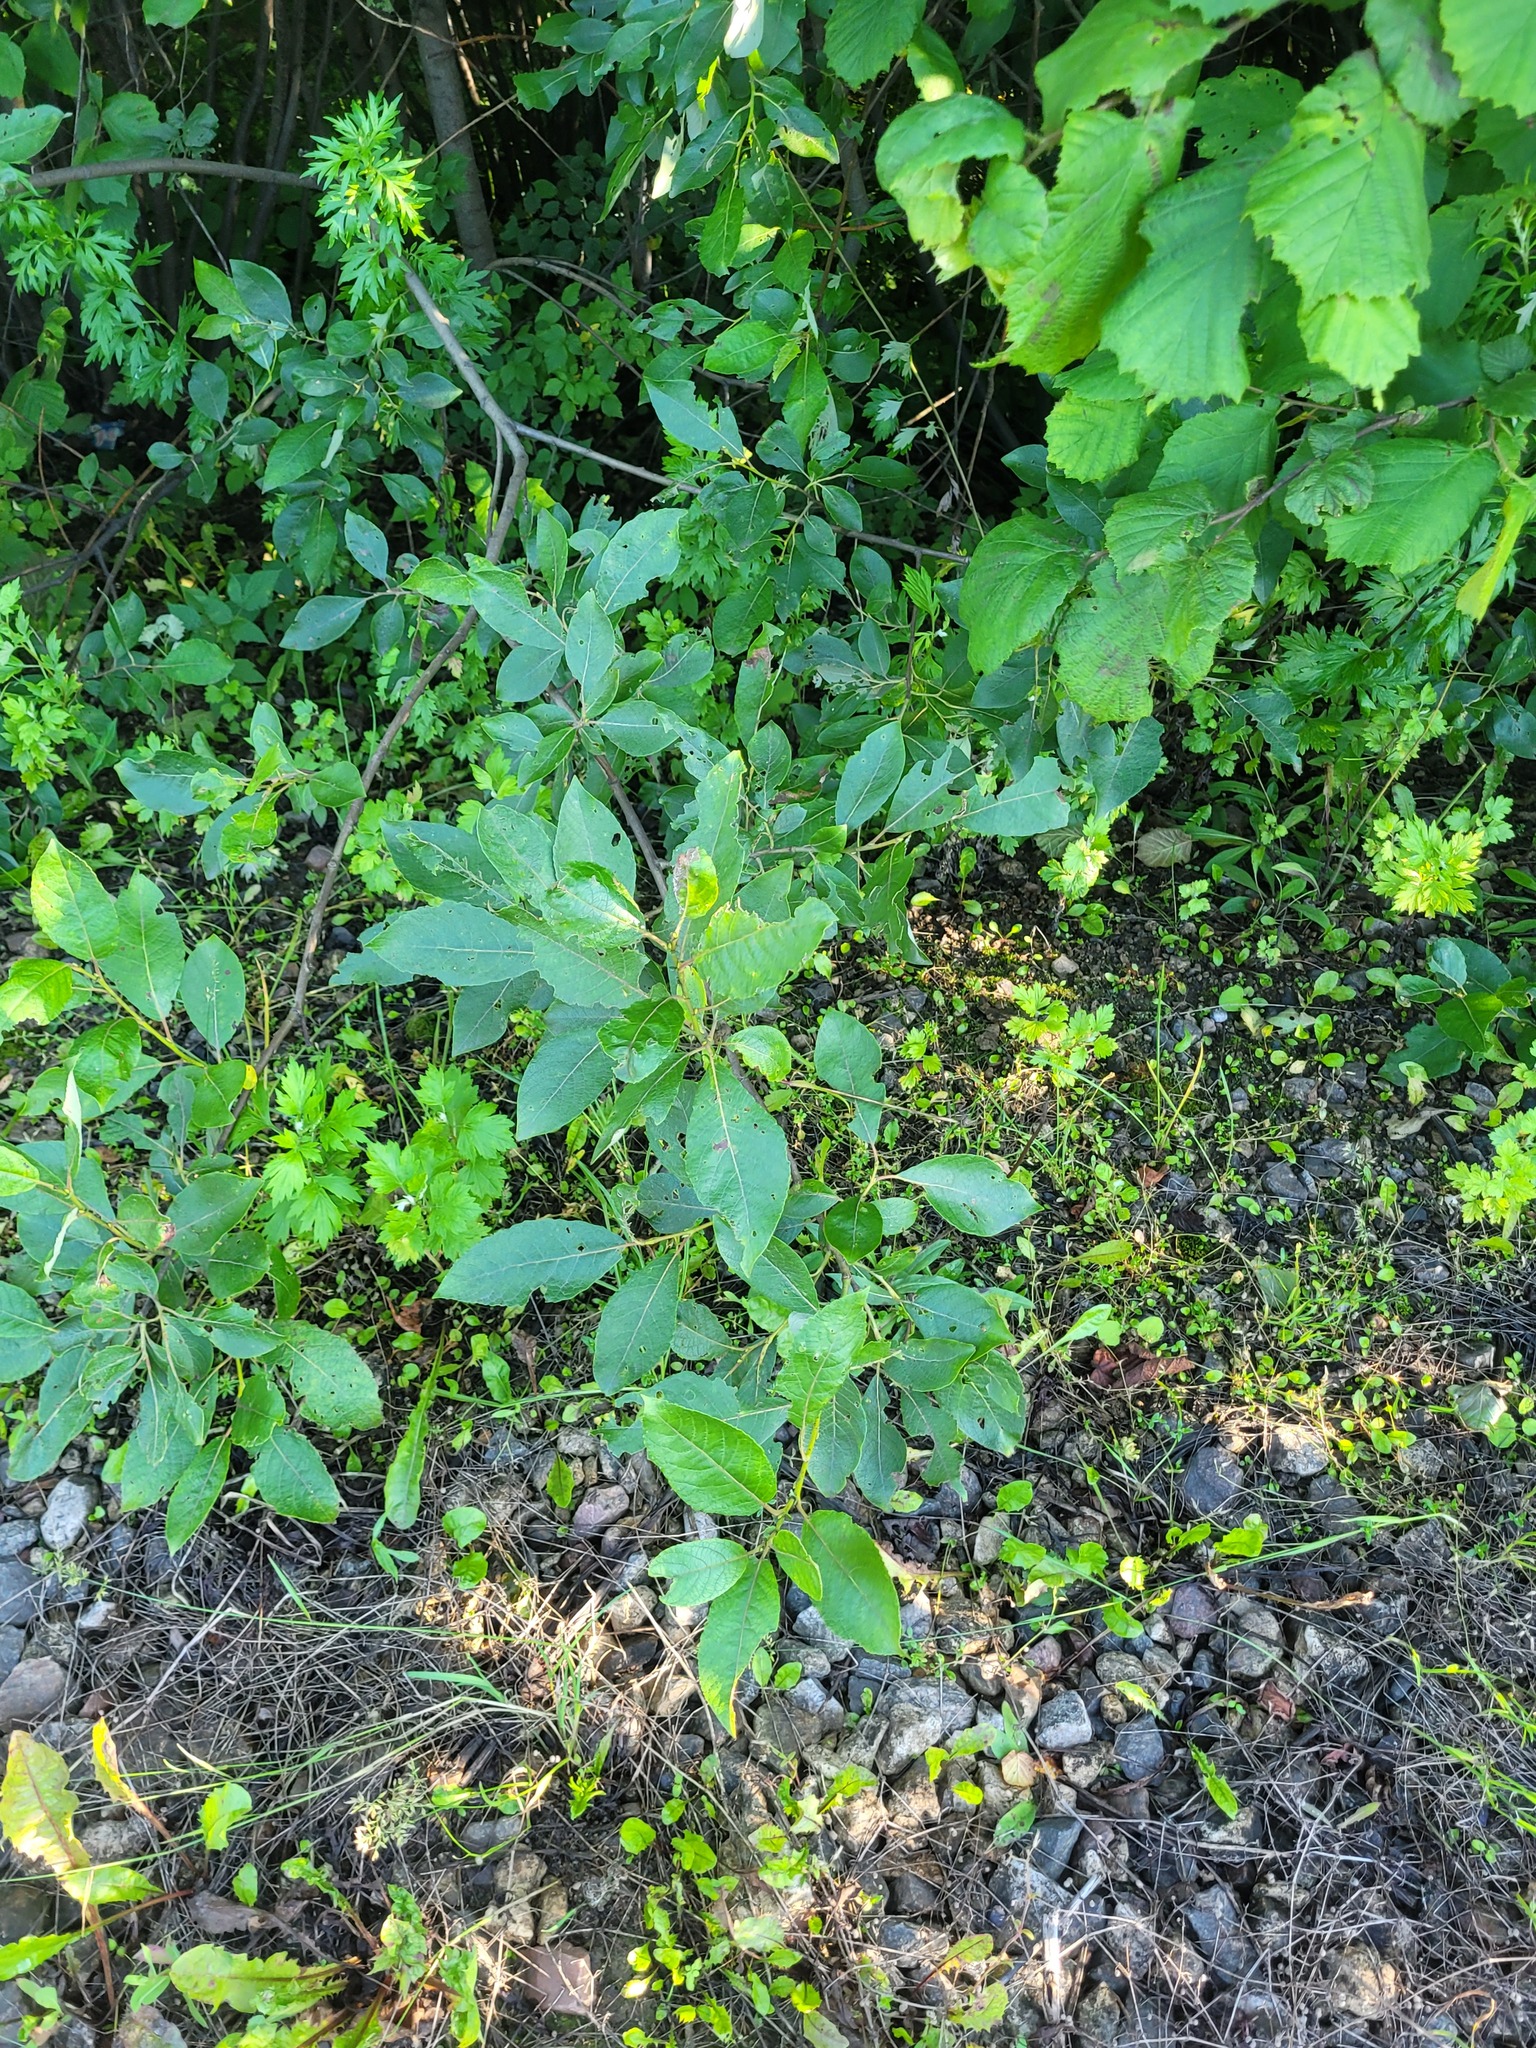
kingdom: Plantae
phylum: Tracheophyta
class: Magnoliopsida
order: Malpighiales
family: Salicaceae
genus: Salix
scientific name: Salix caprea
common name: Goat willow
